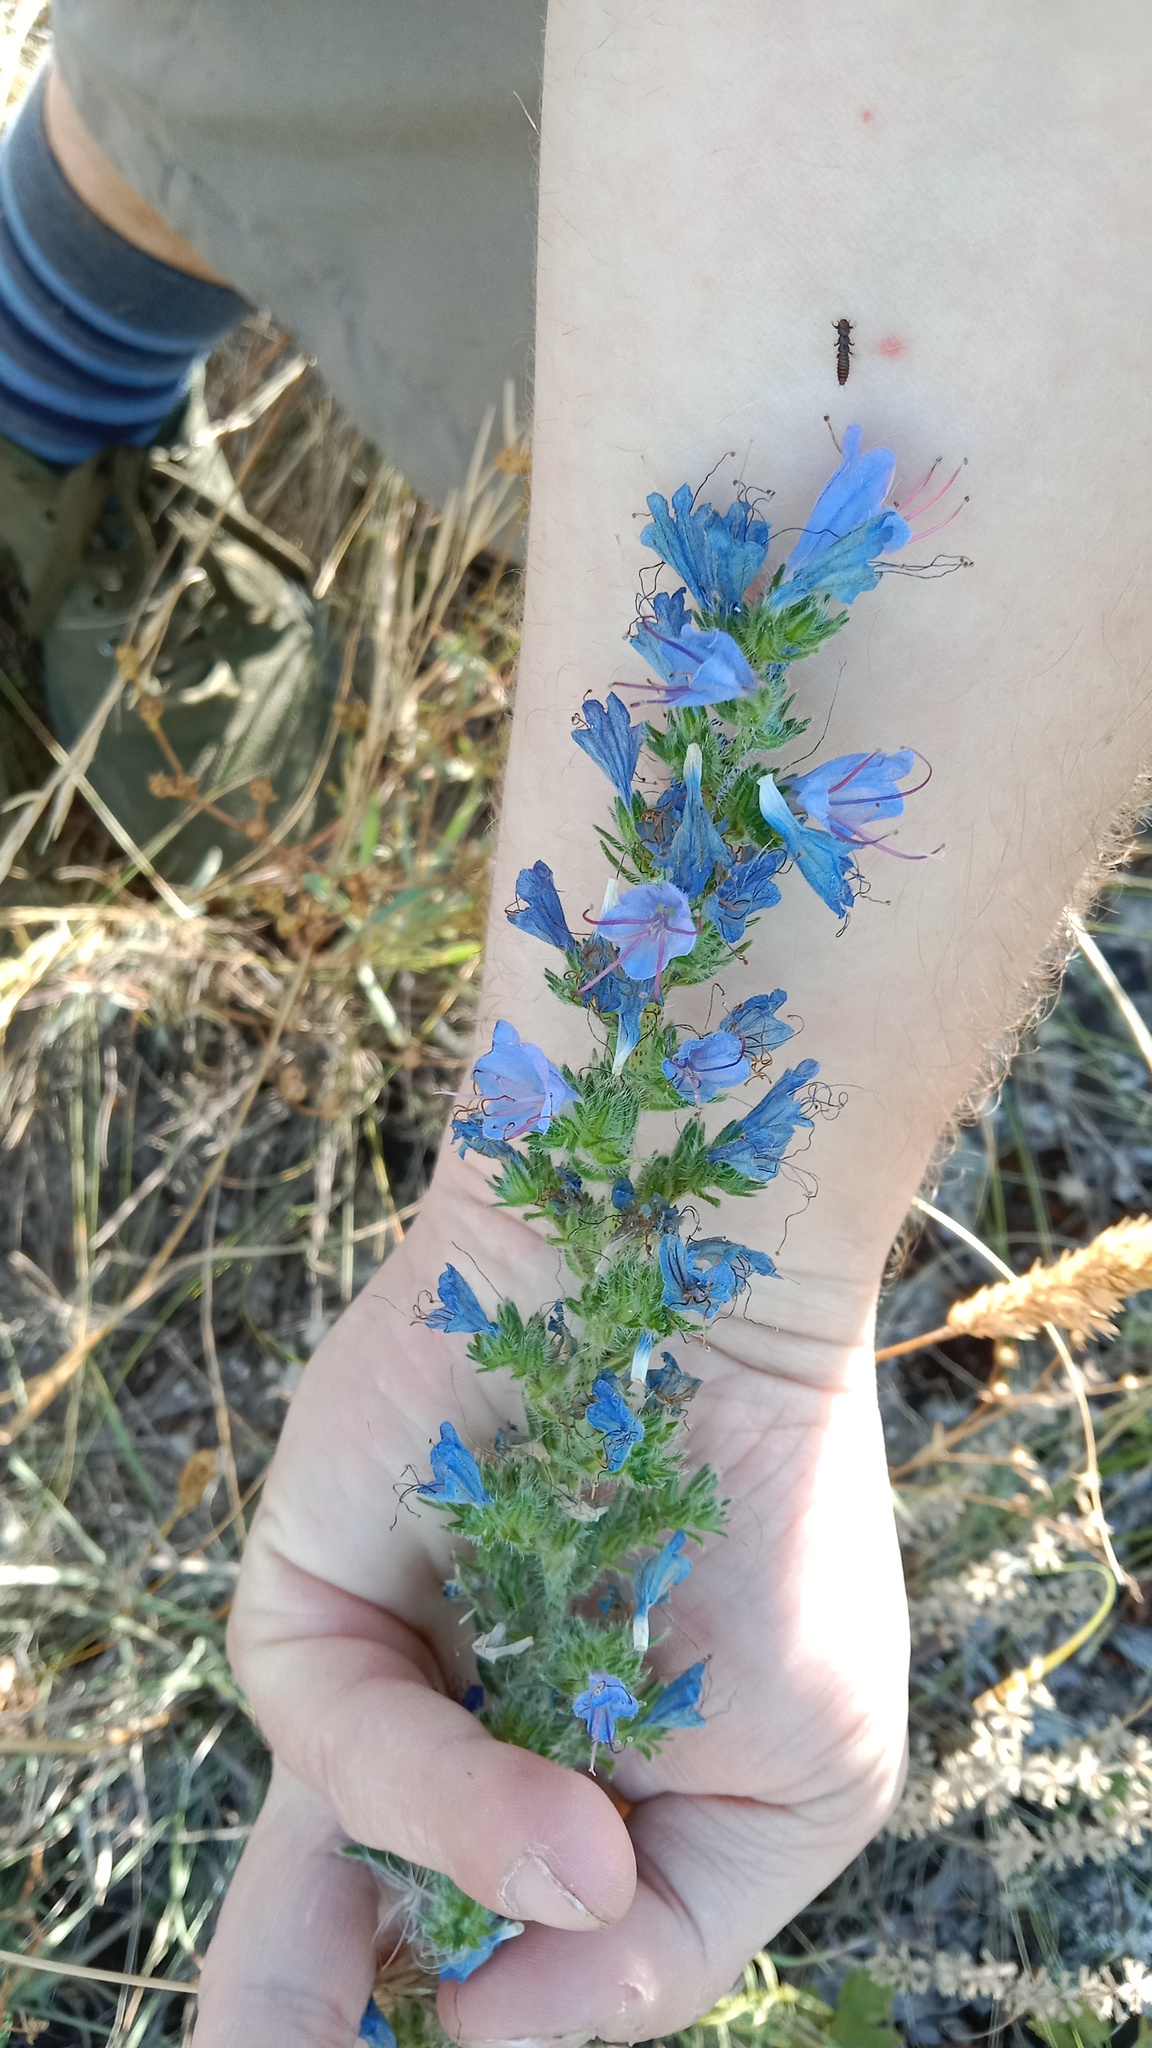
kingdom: Plantae
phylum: Tracheophyta
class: Magnoliopsida
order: Boraginales
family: Boraginaceae
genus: Echium
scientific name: Echium vulgare
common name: Common viper's bugloss
